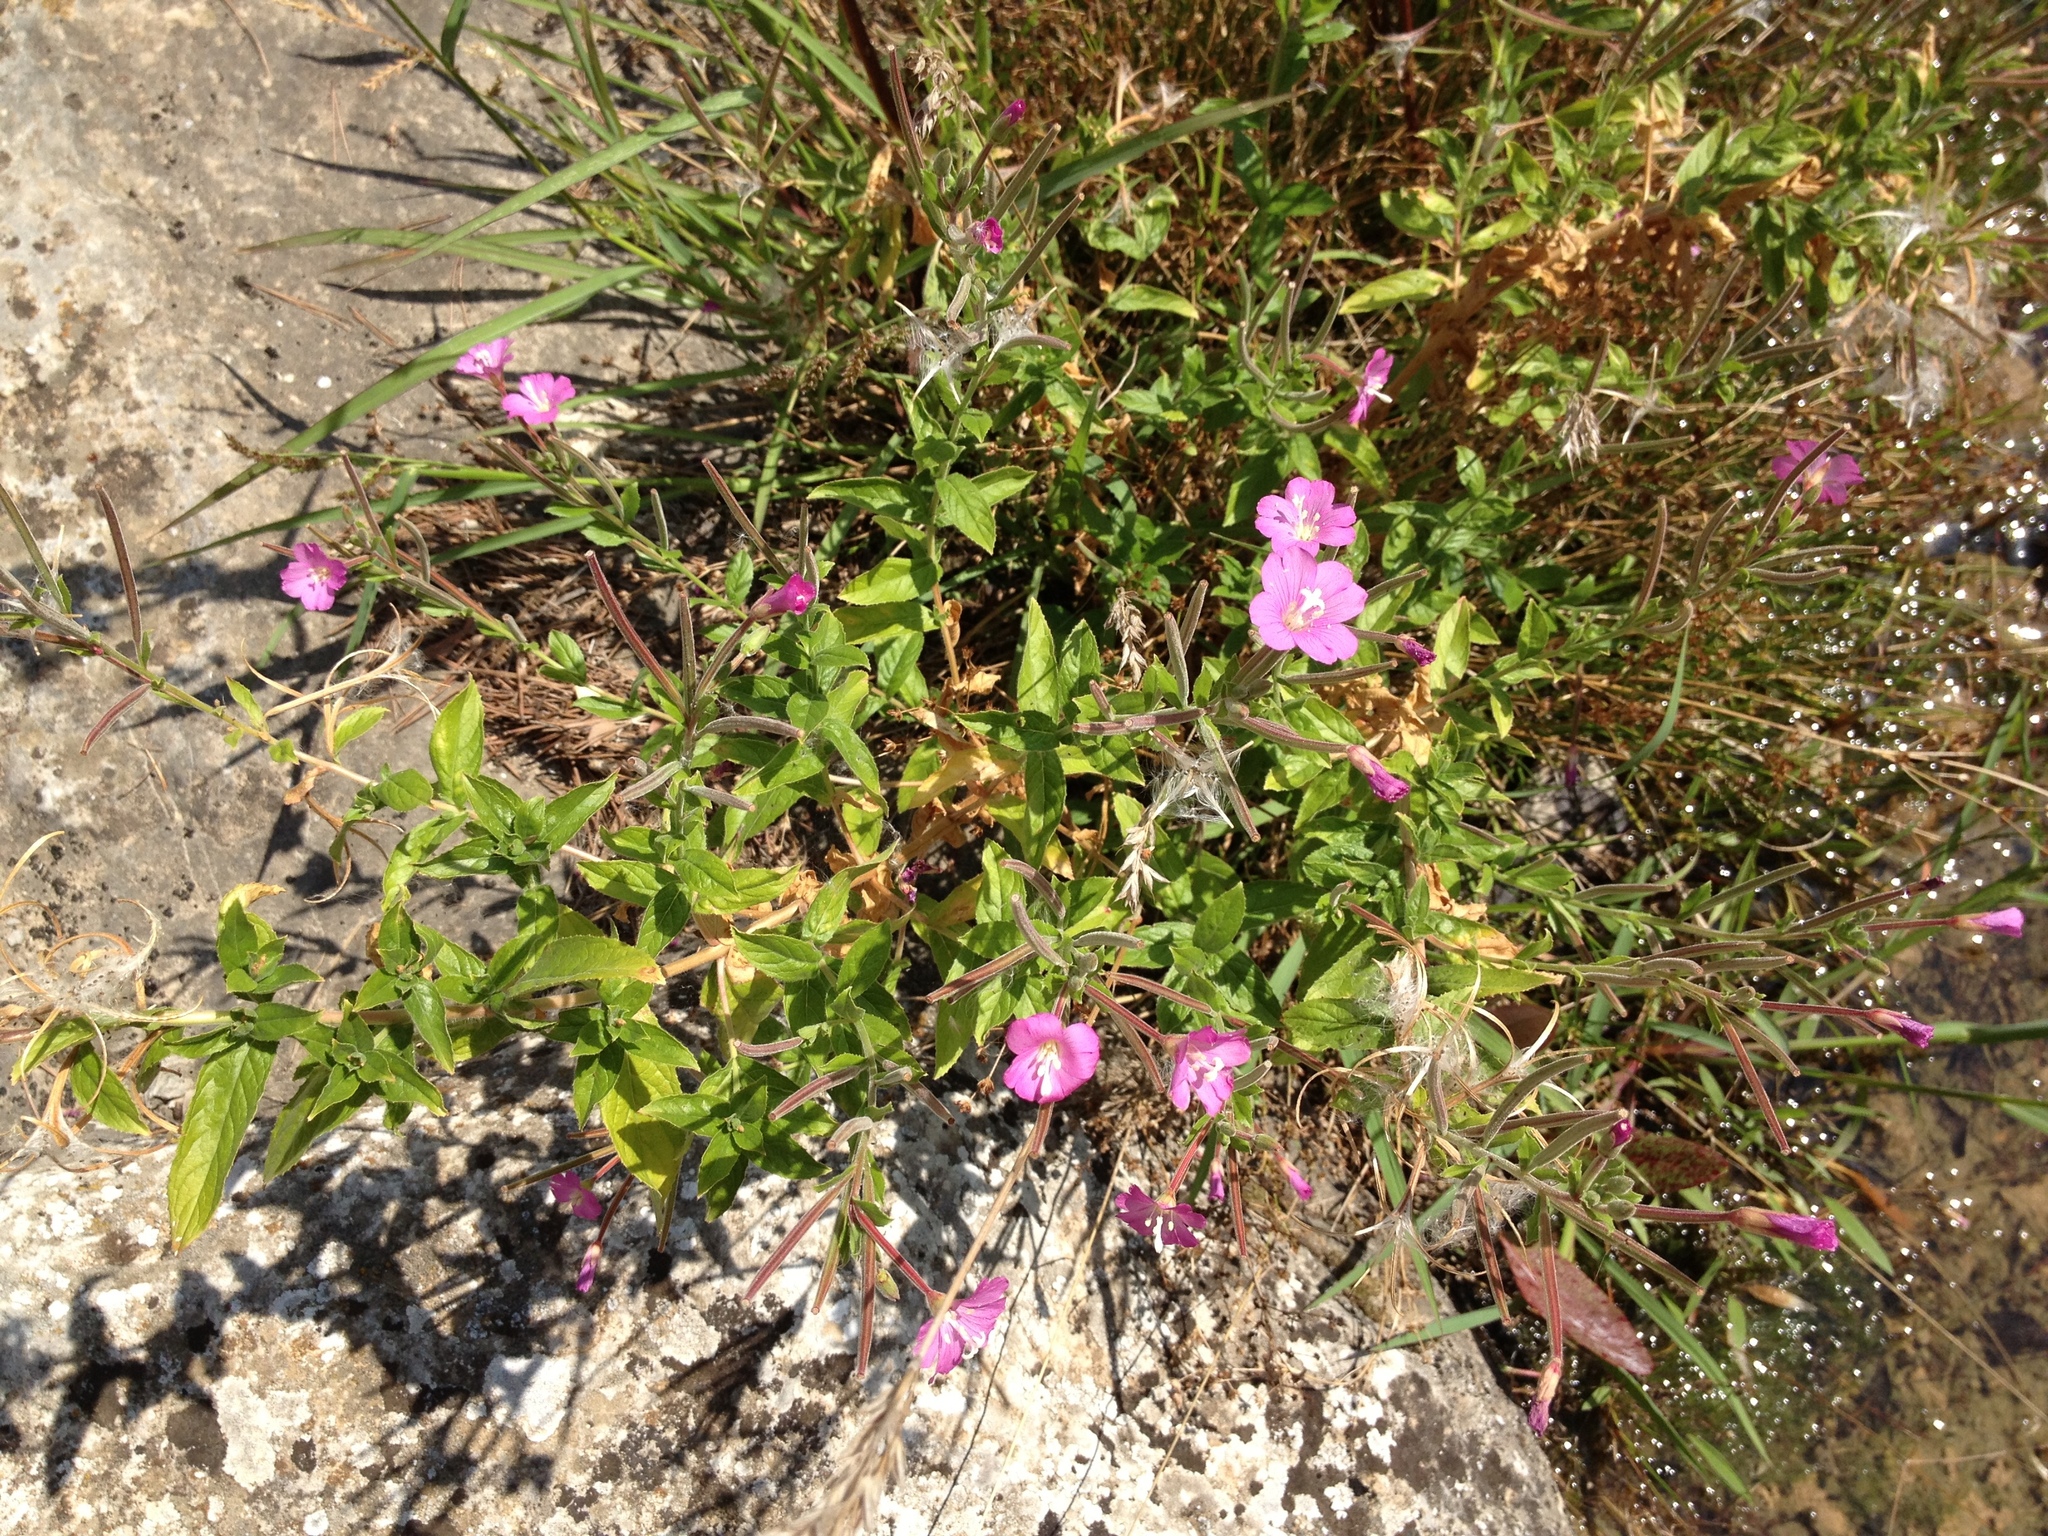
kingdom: Plantae
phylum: Tracheophyta
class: Magnoliopsida
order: Myrtales
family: Onagraceae
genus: Epilobium
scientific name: Epilobium hirsutum
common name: Great willowherb
